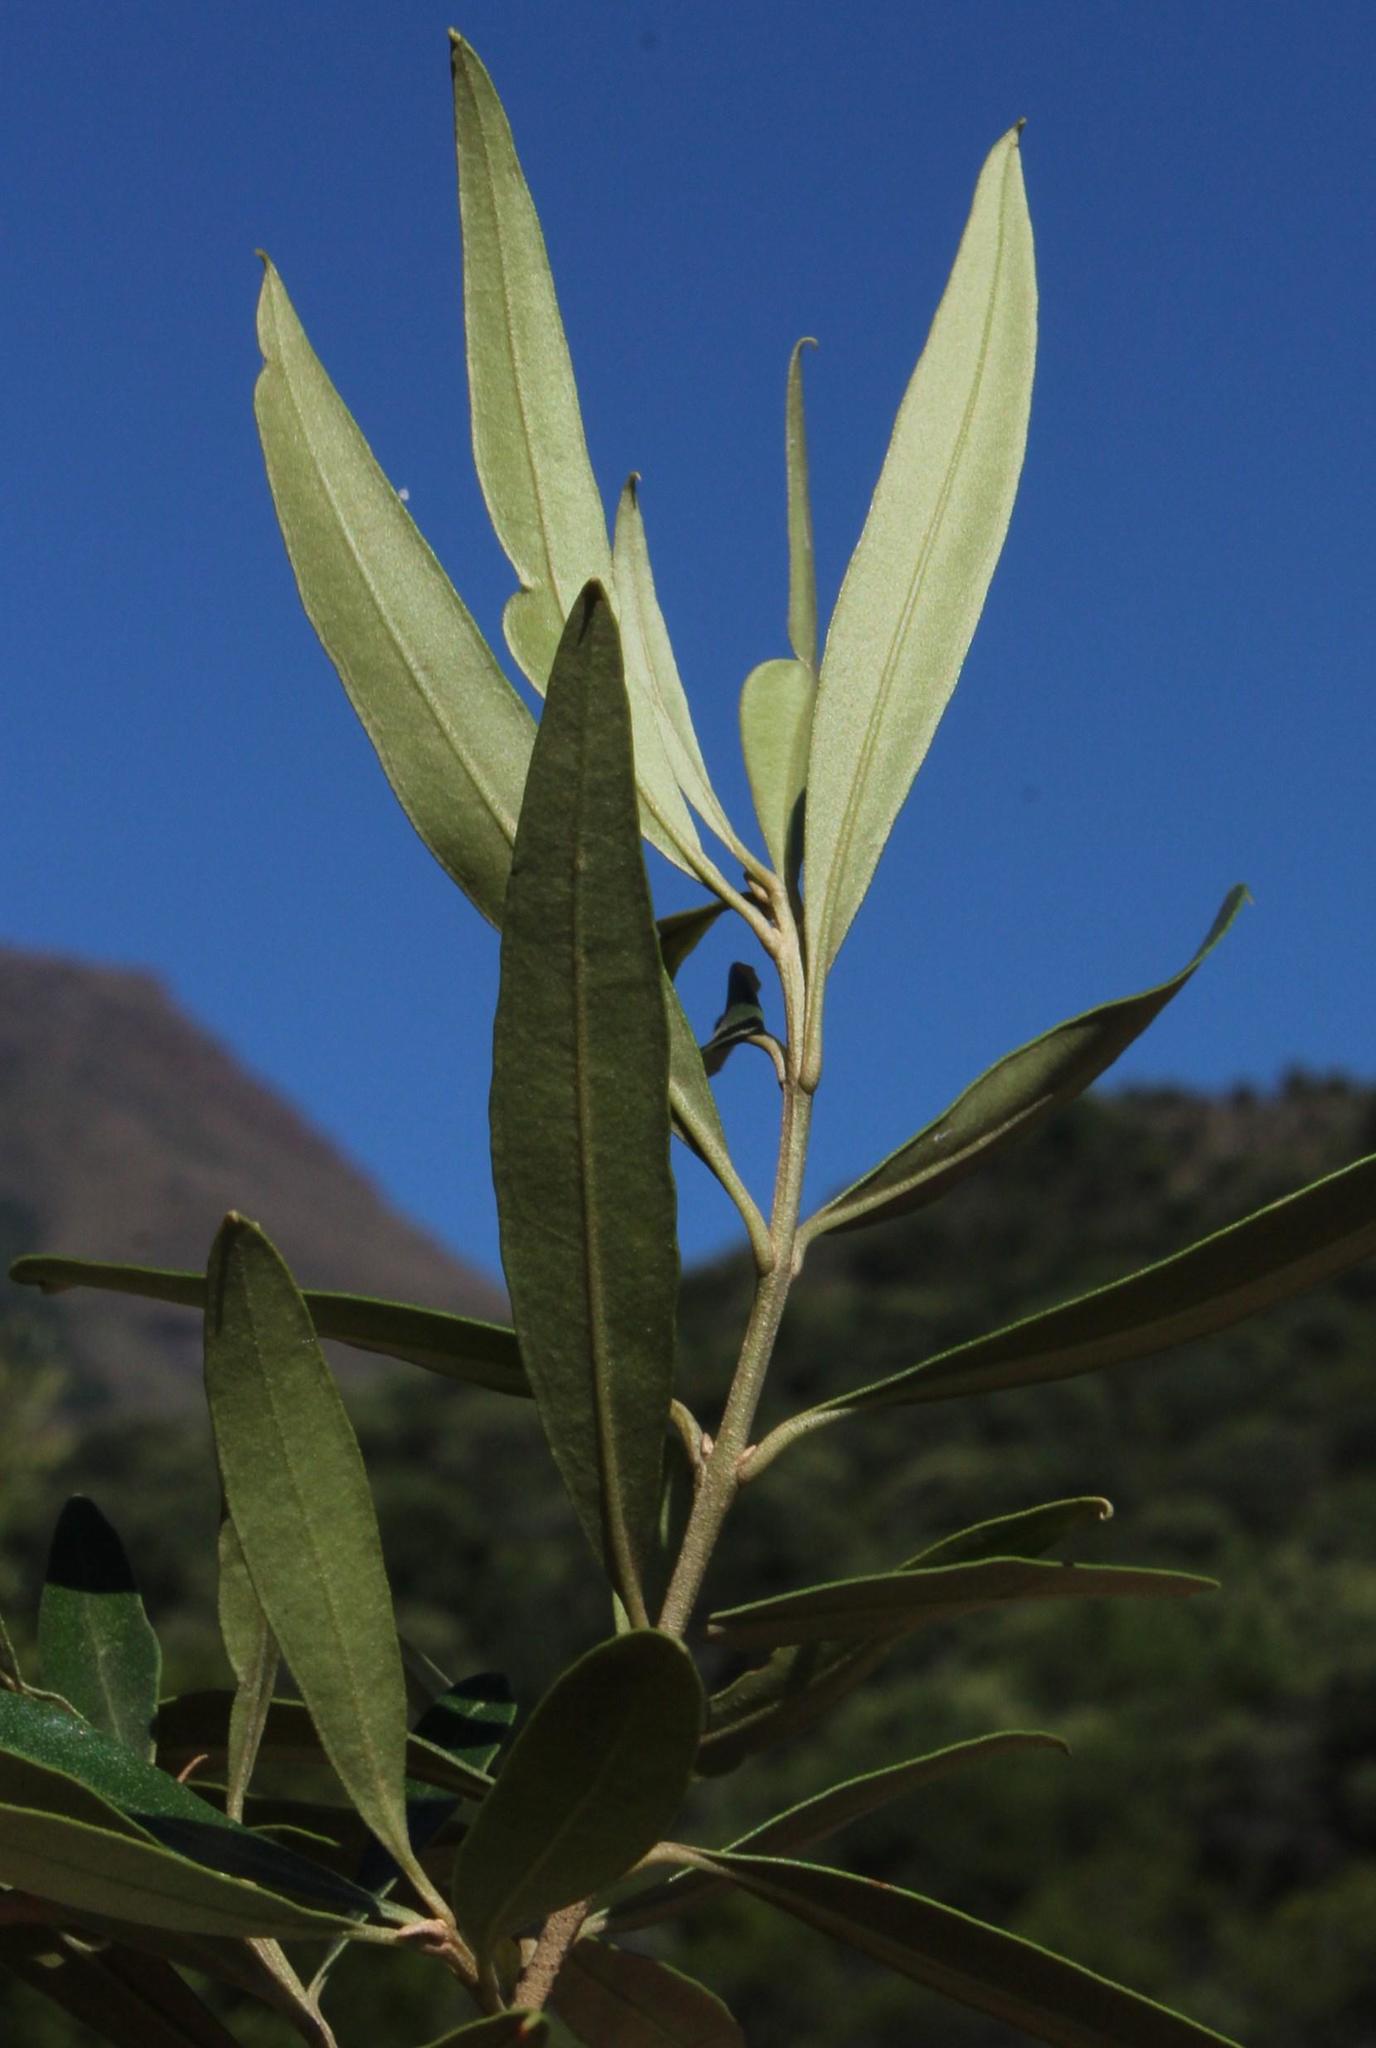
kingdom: Plantae
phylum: Tracheophyta
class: Magnoliopsida
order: Lamiales
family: Oleaceae
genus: Olea
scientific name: Olea europaea
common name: Olive
